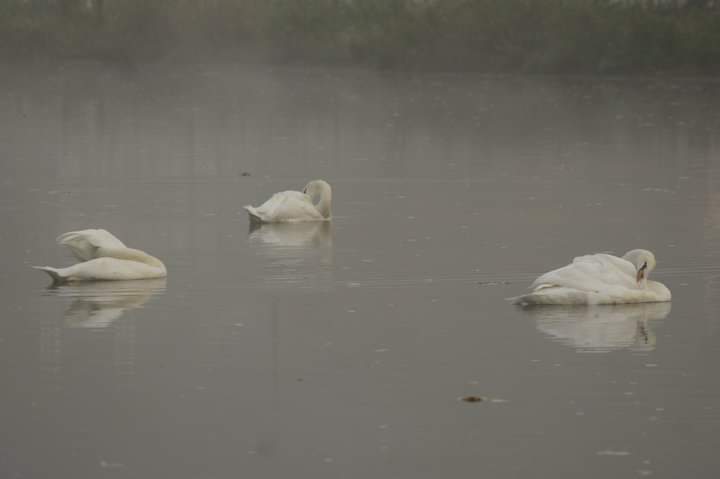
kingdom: Animalia
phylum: Chordata
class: Aves
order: Anseriformes
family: Anatidae
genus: Cygnus
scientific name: Cygnus olor
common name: Mute swan
